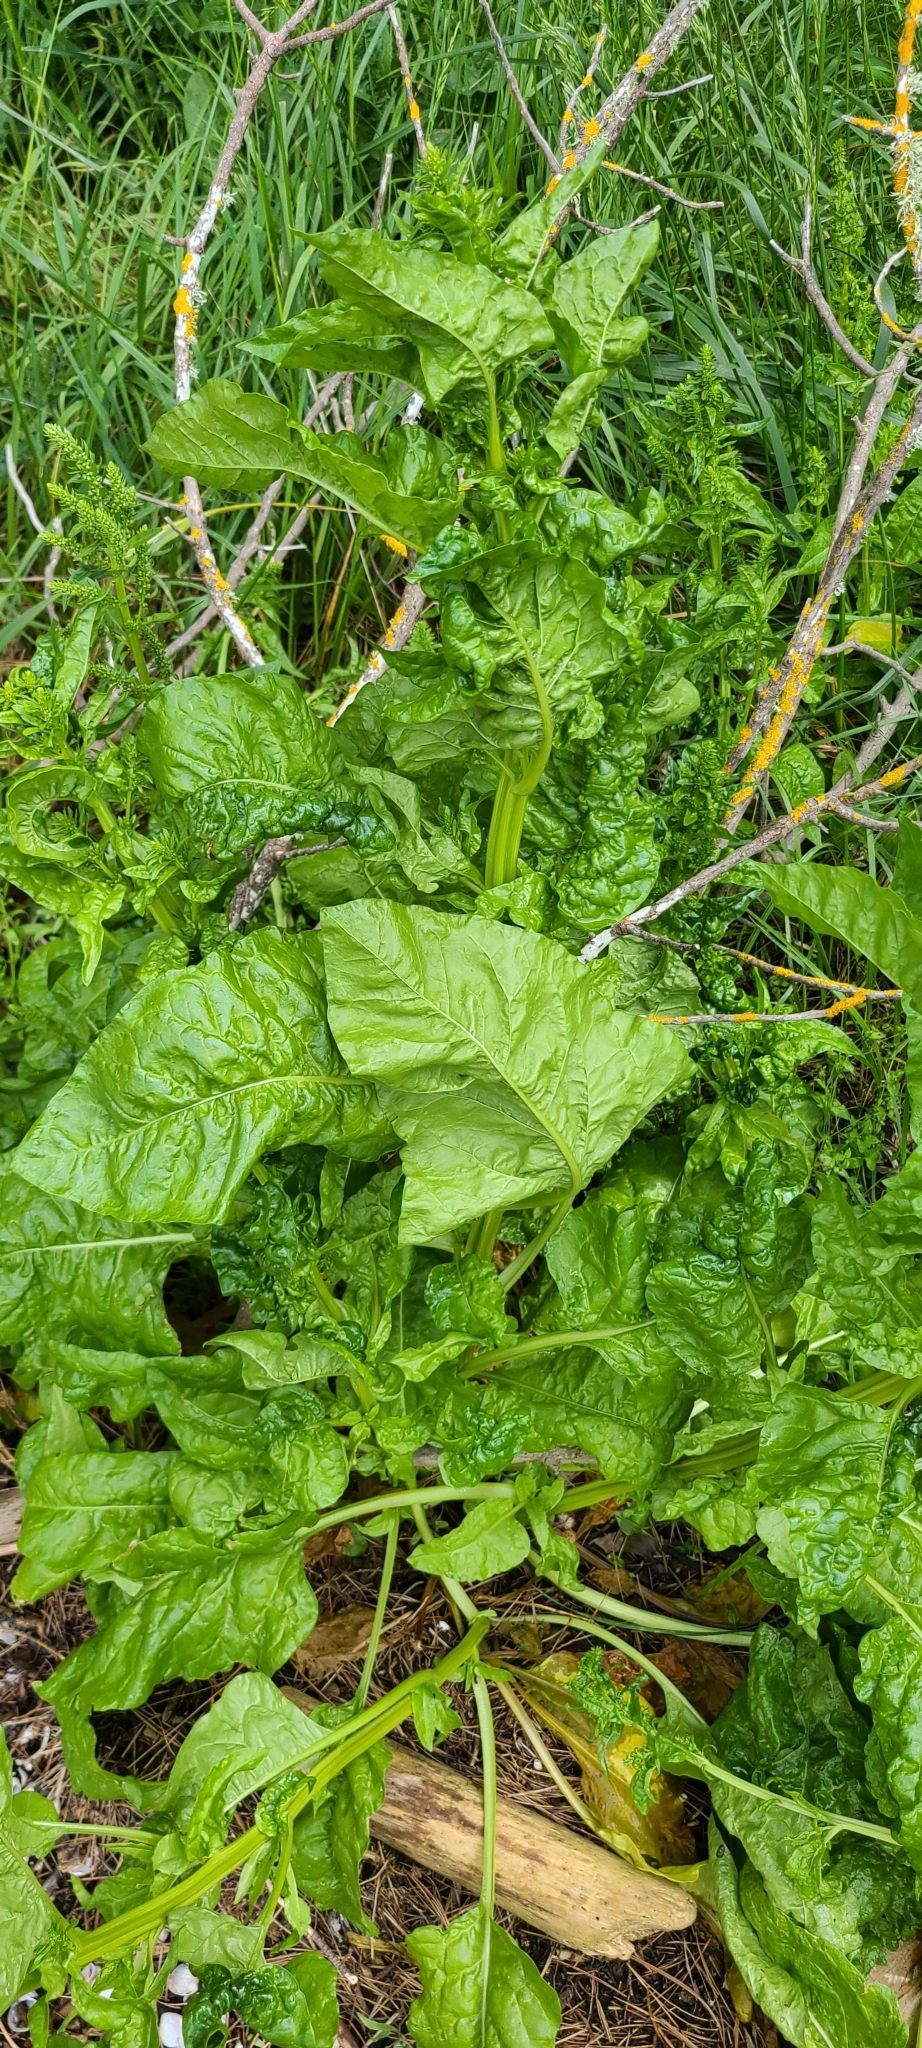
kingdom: Plantae
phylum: Tracheophyta
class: Magnoliopsida
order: Caryophyllales
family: Amaranthaceae
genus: Beta
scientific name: Beta vulgaris
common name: Beet
